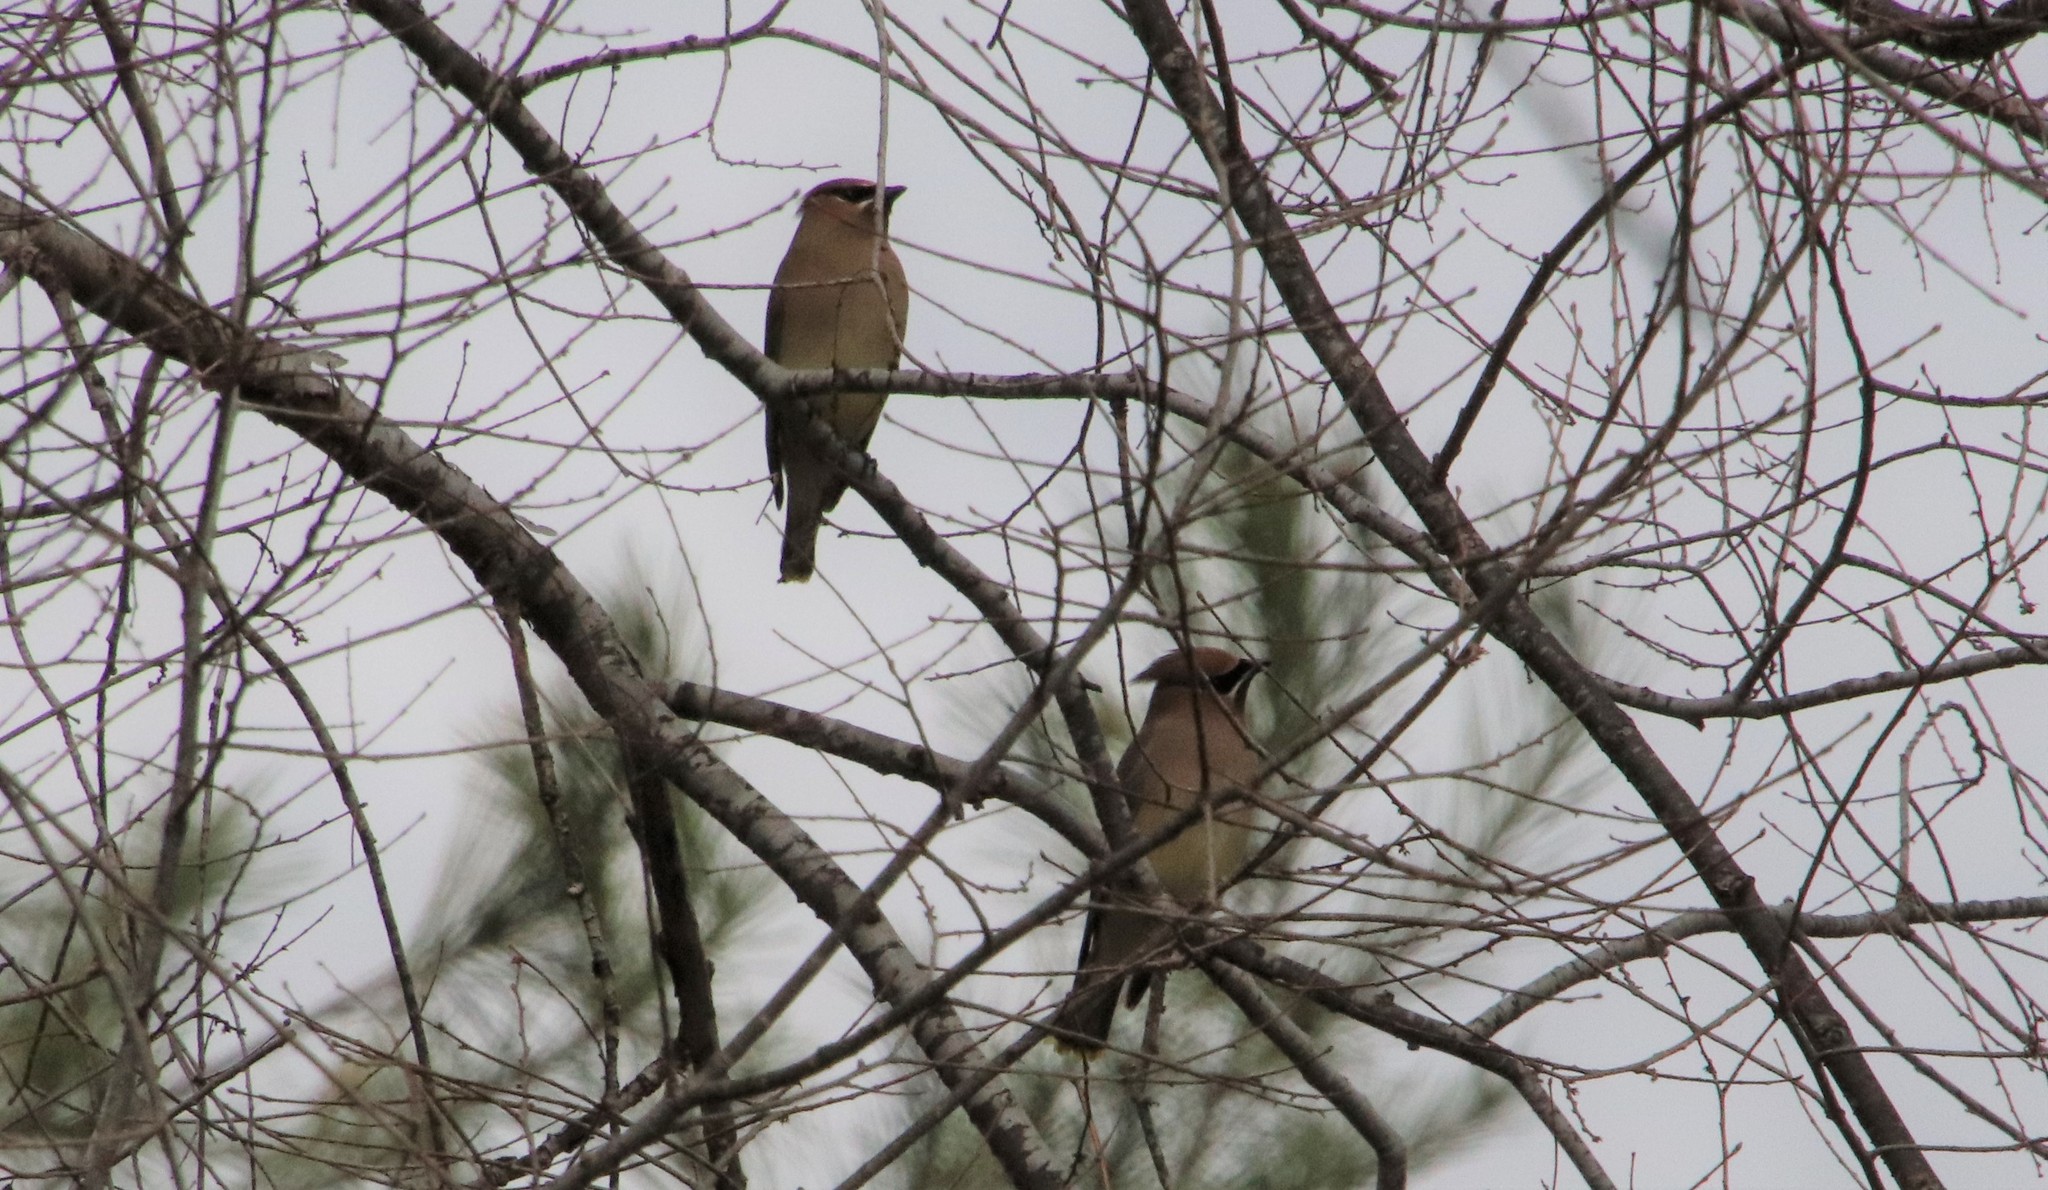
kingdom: Animalia
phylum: Chordata
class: Aves
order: Passeriformes
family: Bombycillidae
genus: Bombycilla
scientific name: Bombycilla cedrorum
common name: Cedar waxwing
